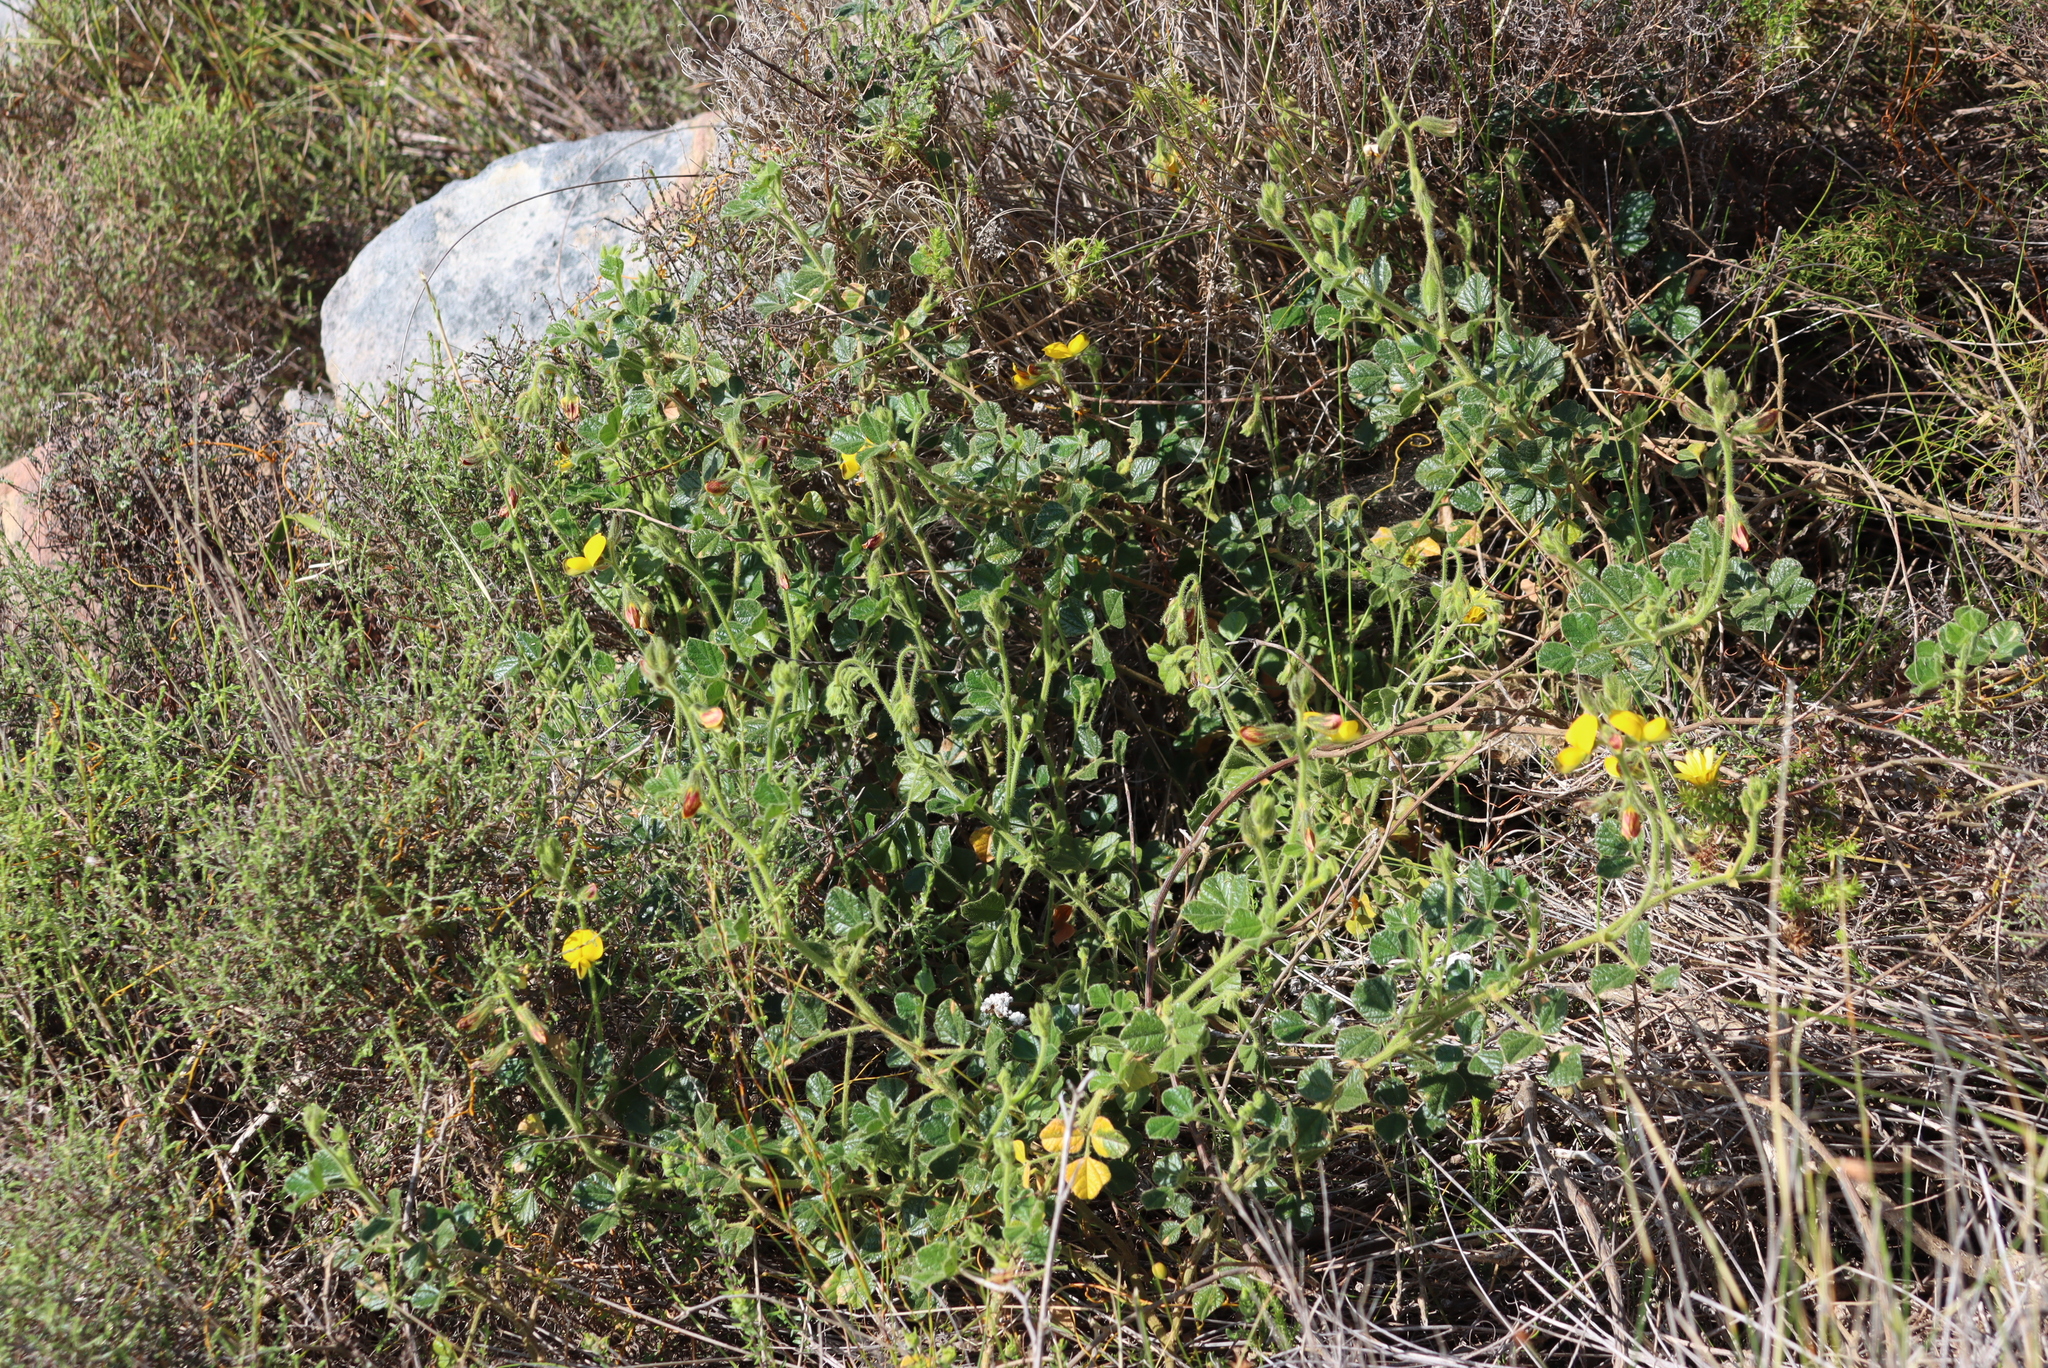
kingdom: Plantae
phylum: Tracheophyta
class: Magnoliopsida
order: Fabales
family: Fabaceae
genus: Bolusafra
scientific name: Bolusafra bituminosa
